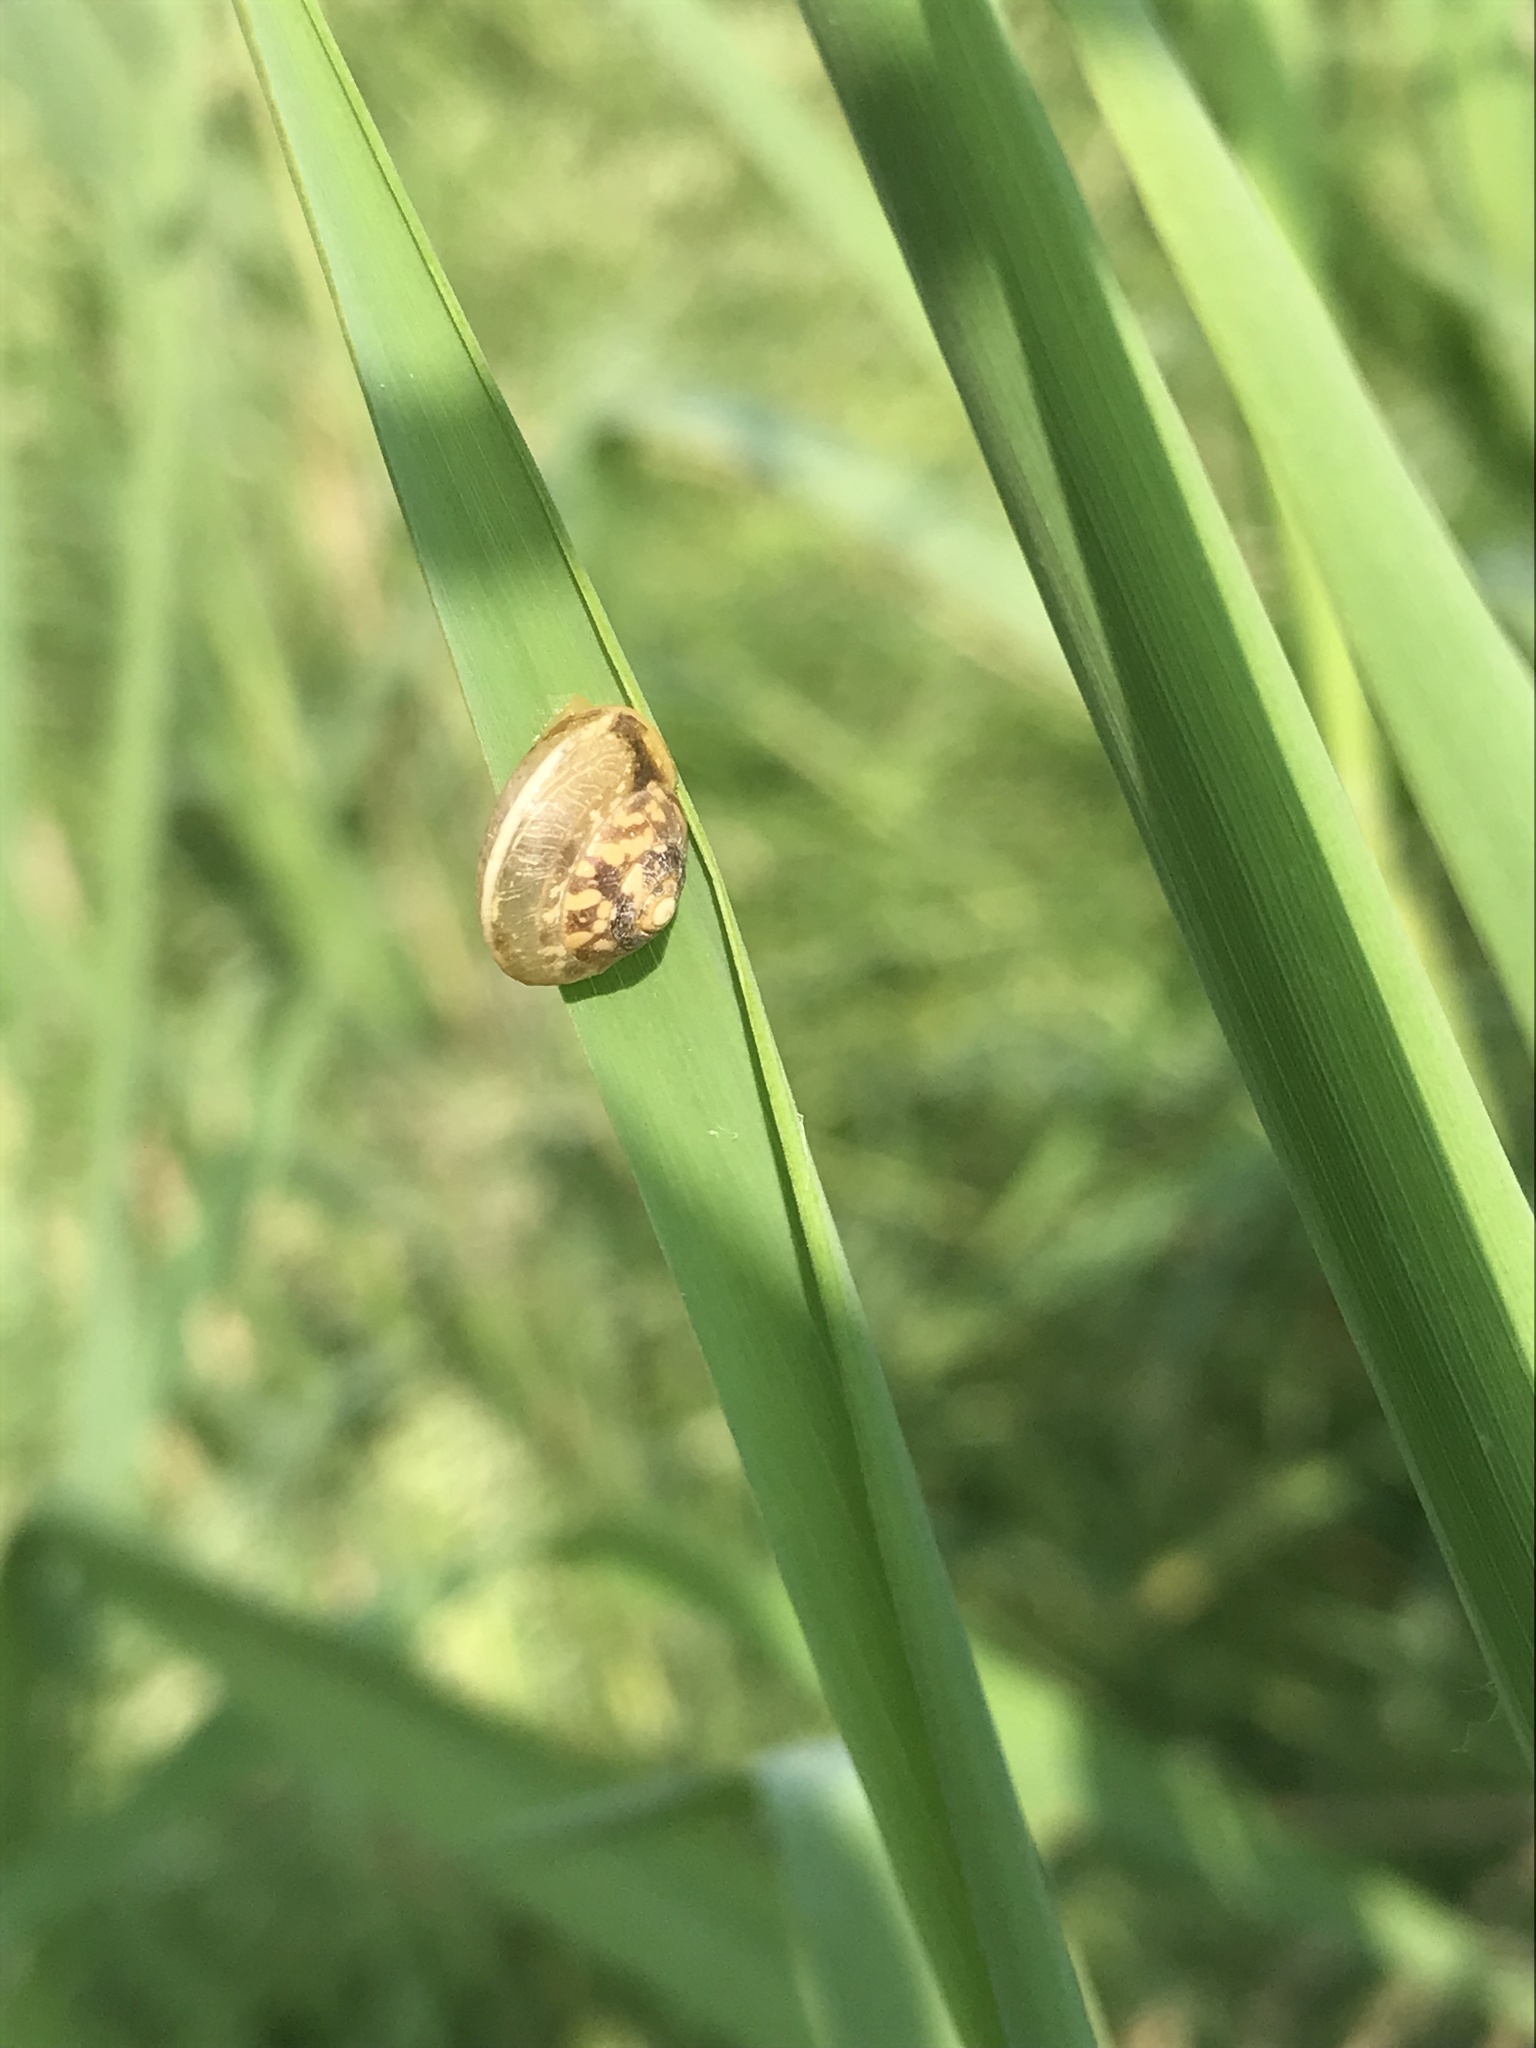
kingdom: Animalia
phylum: Mollusca
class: Gastropoda
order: Stylommatophora
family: Hygromiidae
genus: Hygromia
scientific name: Hygromia cinctella
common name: Girdled snail
